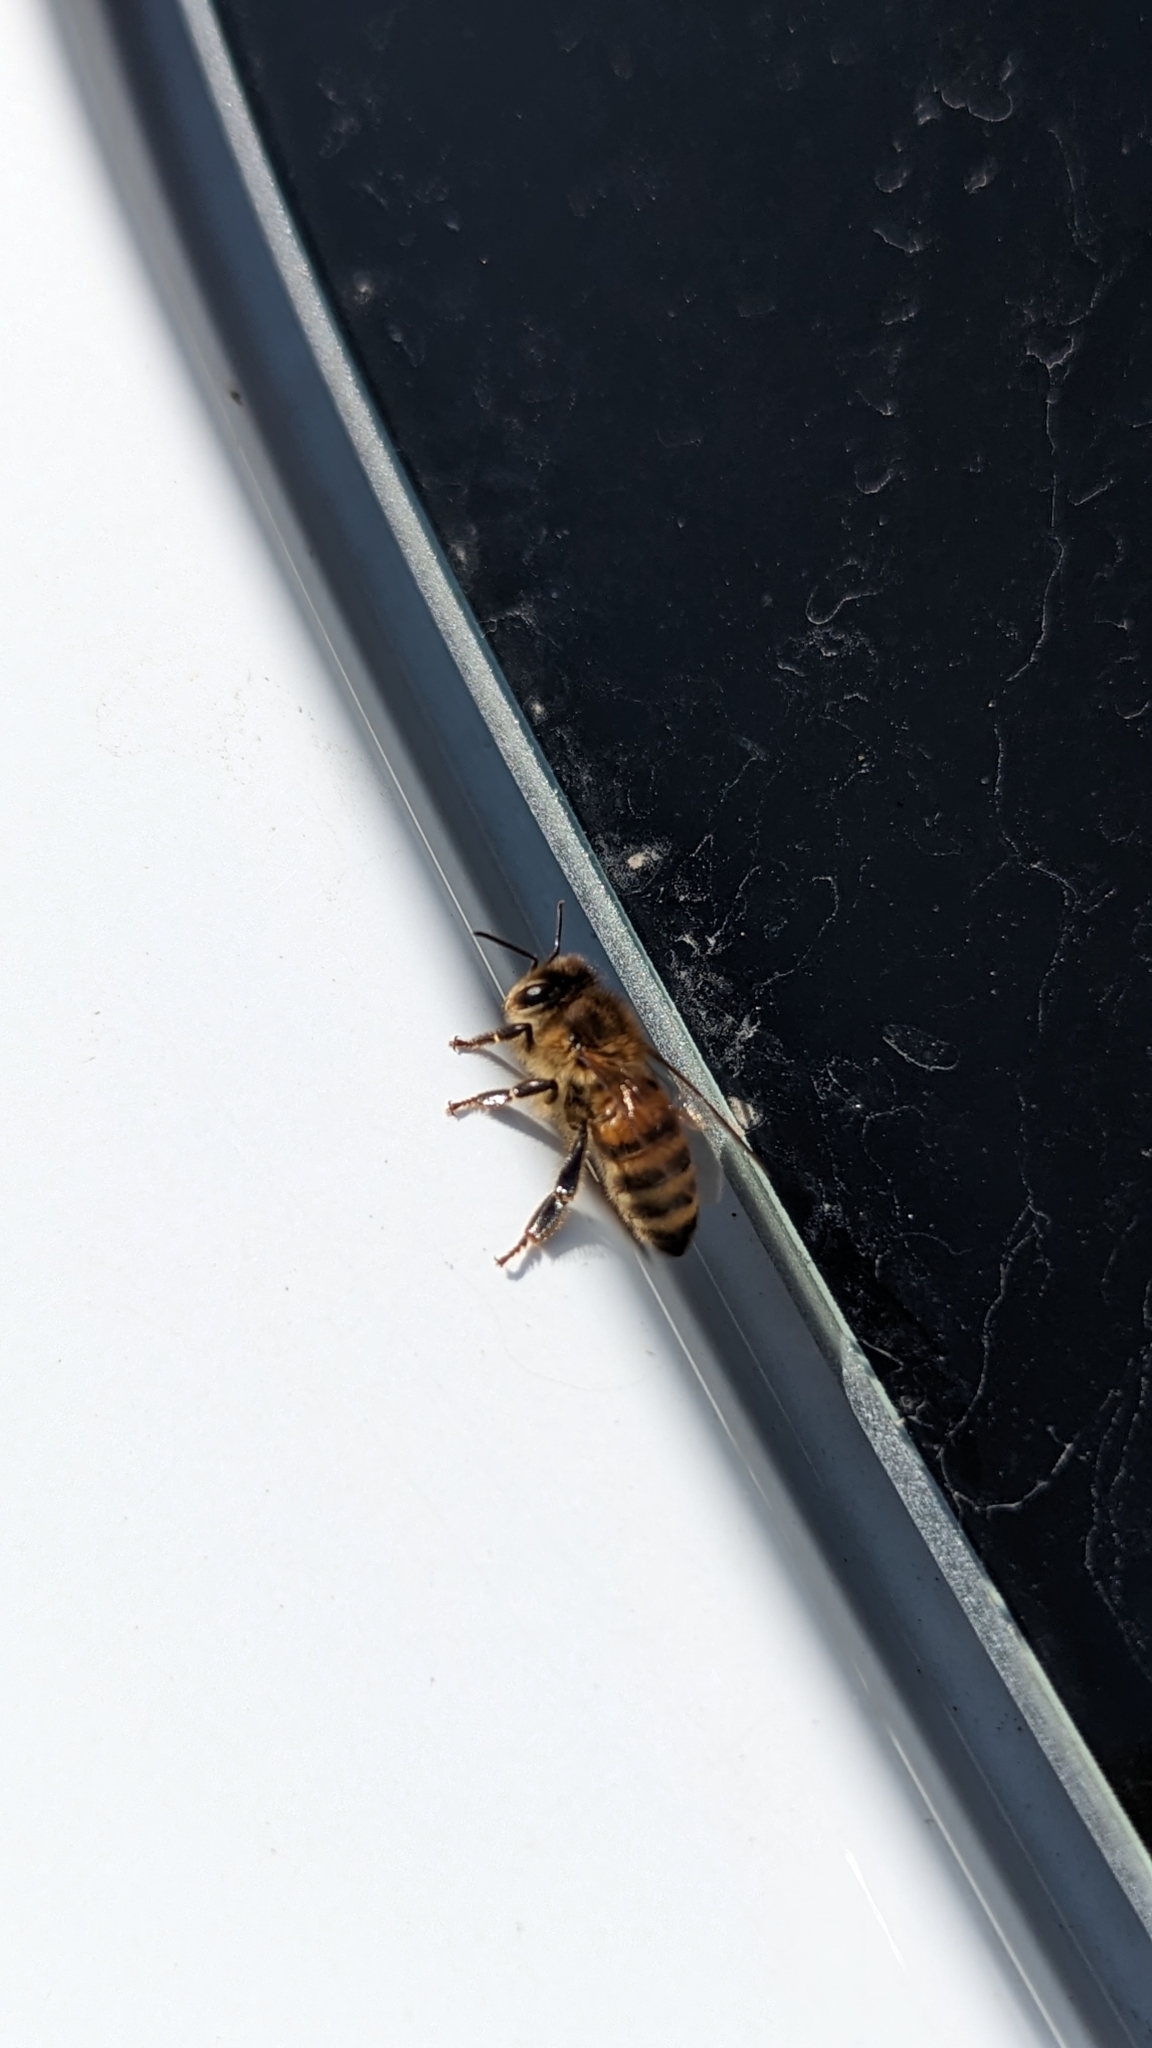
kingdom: Animalia
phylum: Arthropoda
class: Insecta
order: Hymenoptera
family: Apidae
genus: Apis
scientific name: Apis mellifera
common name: Honey bee
